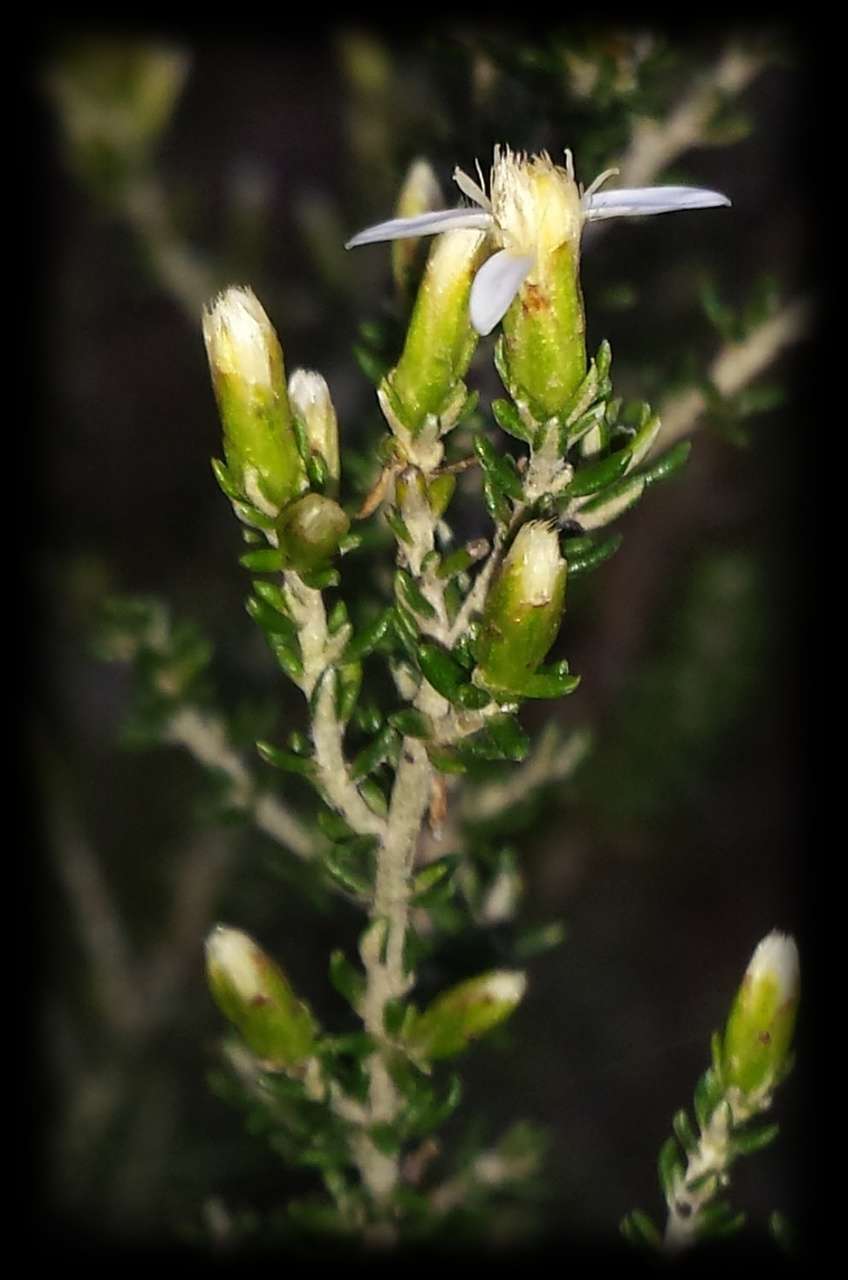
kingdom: Plantae
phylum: Tracheophyta
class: Magnoliopsida
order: Asterales
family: Asteraceae
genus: Olearia
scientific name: Olearia algida
